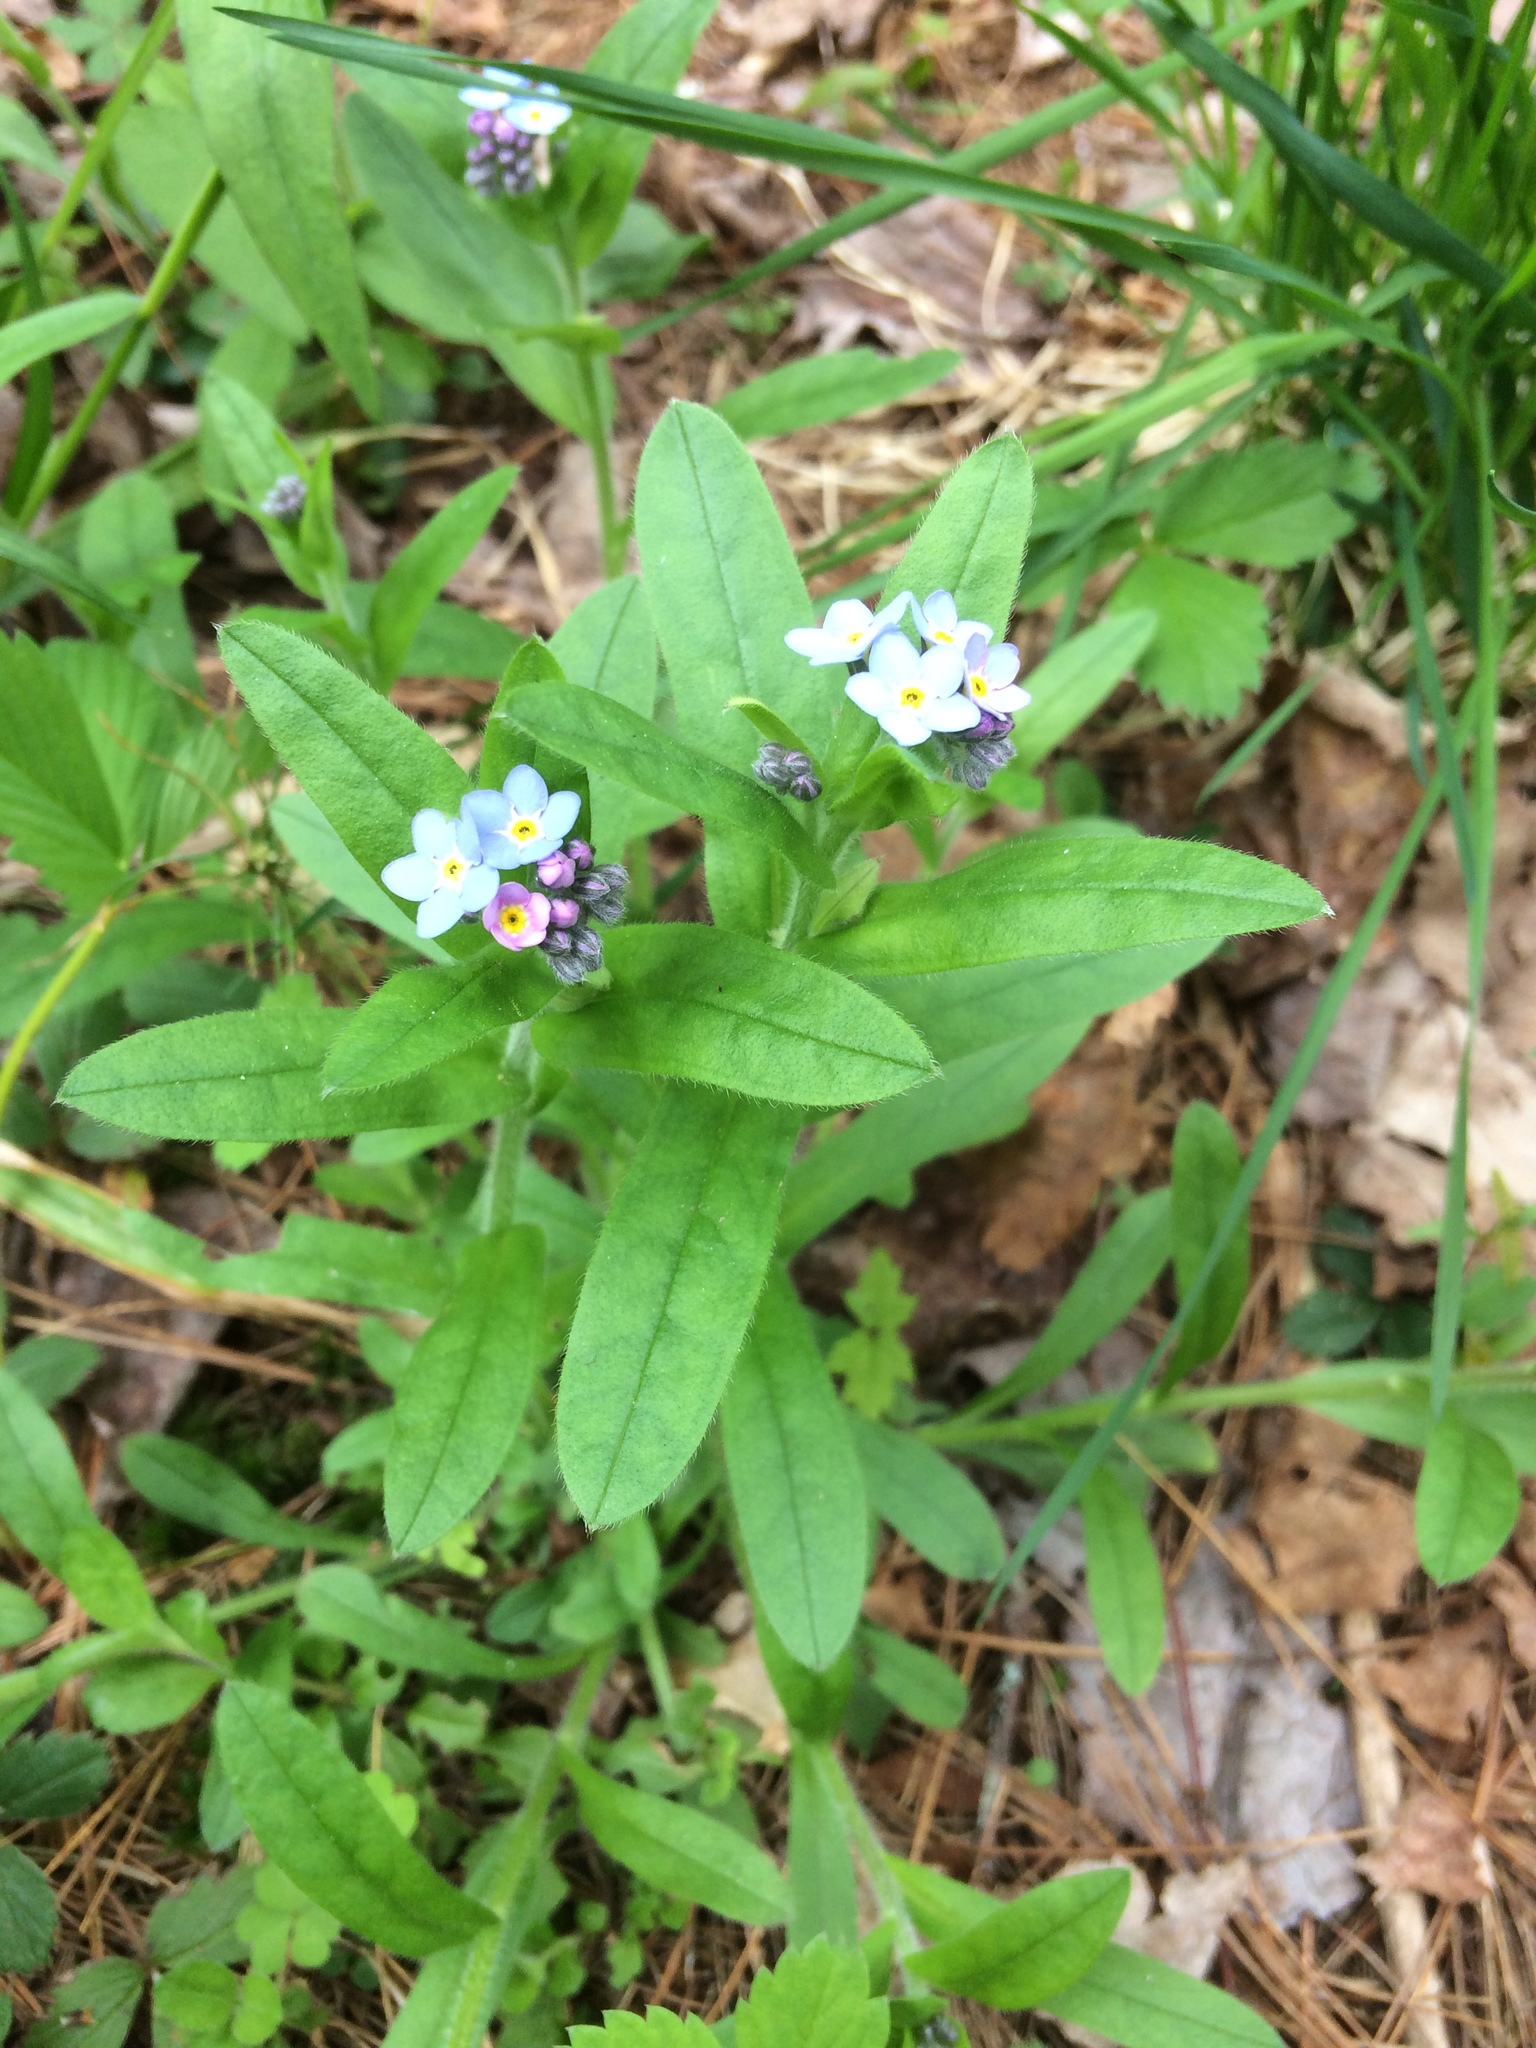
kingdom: Plantae
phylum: Tracheophyta
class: Magnoliopsida
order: Boraginales
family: Boraginaceae
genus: Myosotis
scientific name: Myosotis sylvatica
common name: Wood forget-me-not
